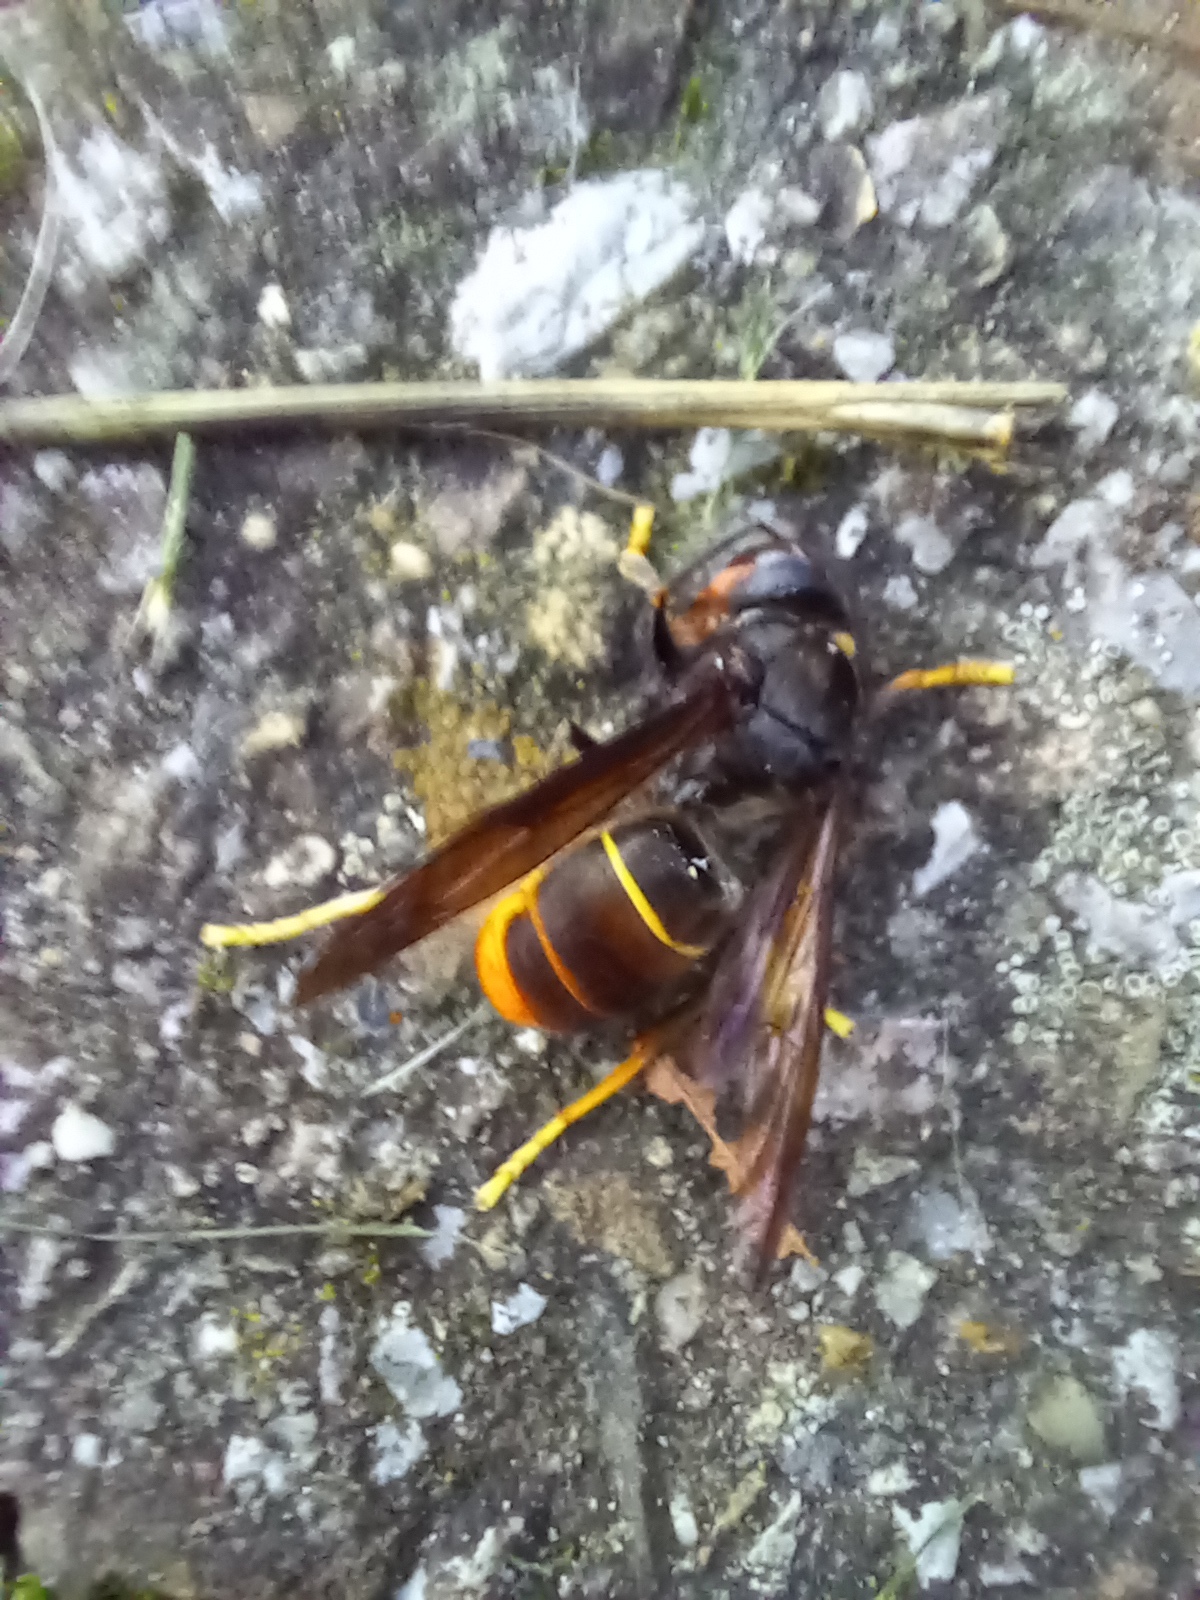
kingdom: Animalia
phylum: Arthropoda
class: Insecta
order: Hymenoptera
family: Vespidae
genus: Vespa
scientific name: Vespa velutina
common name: Asian hornet
